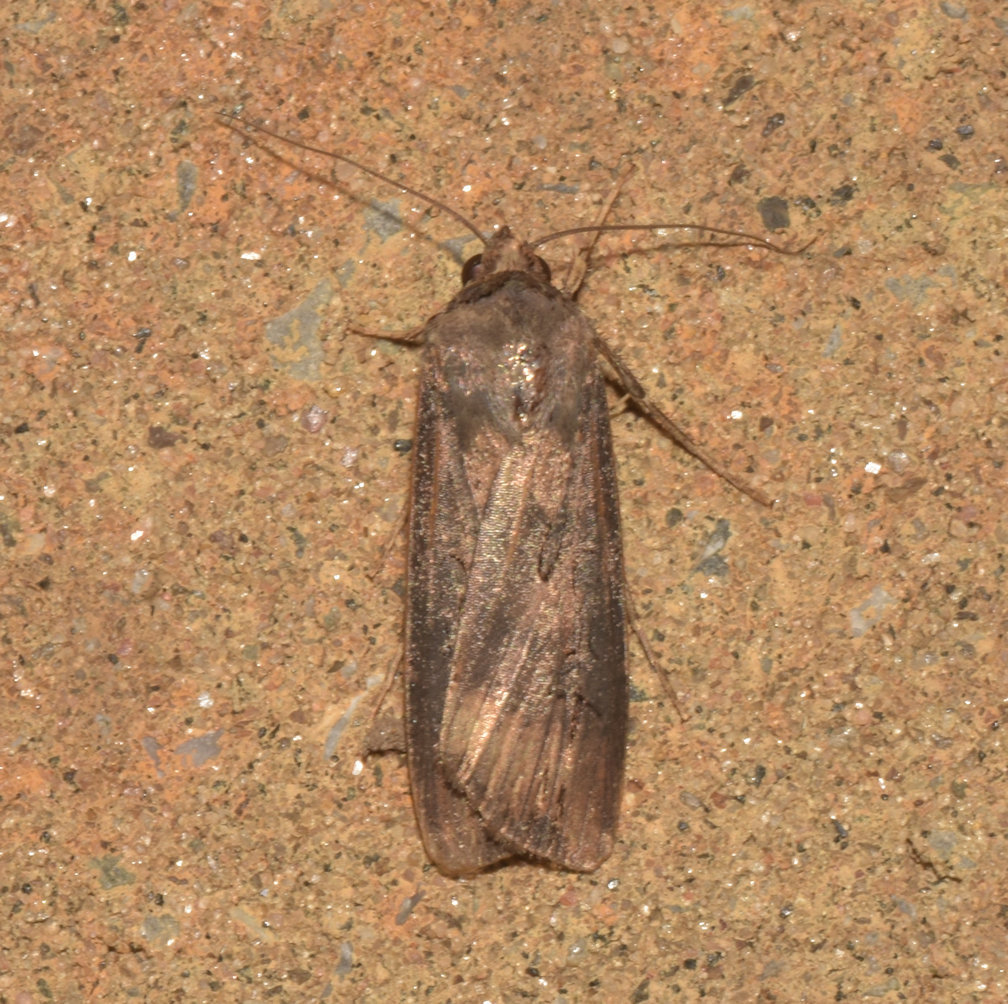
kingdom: Animalia
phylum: Arthropoda
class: Insecta
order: Lepidoptera
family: Noctuidae
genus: Agrotis
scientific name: Agrotis ipsilon
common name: Dark sword-grass
